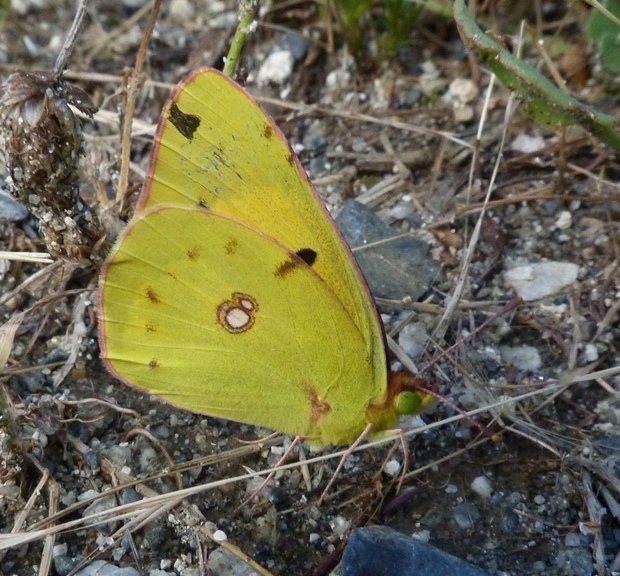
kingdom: Animalia
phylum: Arthropoda
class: Insecta
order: Lepidoptera
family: Pieridae
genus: Colias
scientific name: Colias croceus
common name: Clouded yellow
